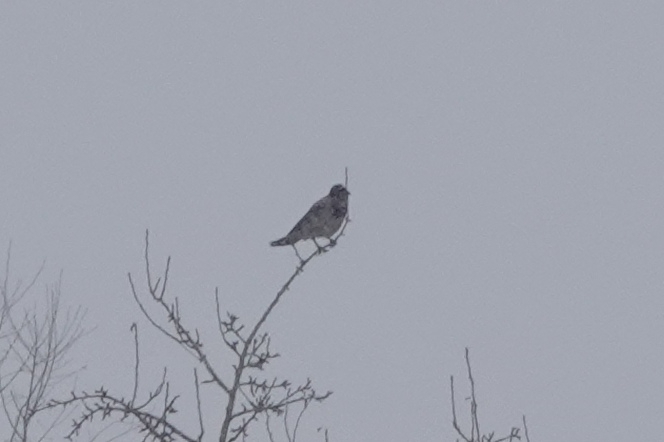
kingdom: Animalia
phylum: Chordata
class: Aves
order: Passeriformes
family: Corvidae
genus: Corvus
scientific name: Corvus cornix
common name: Hooded crow
